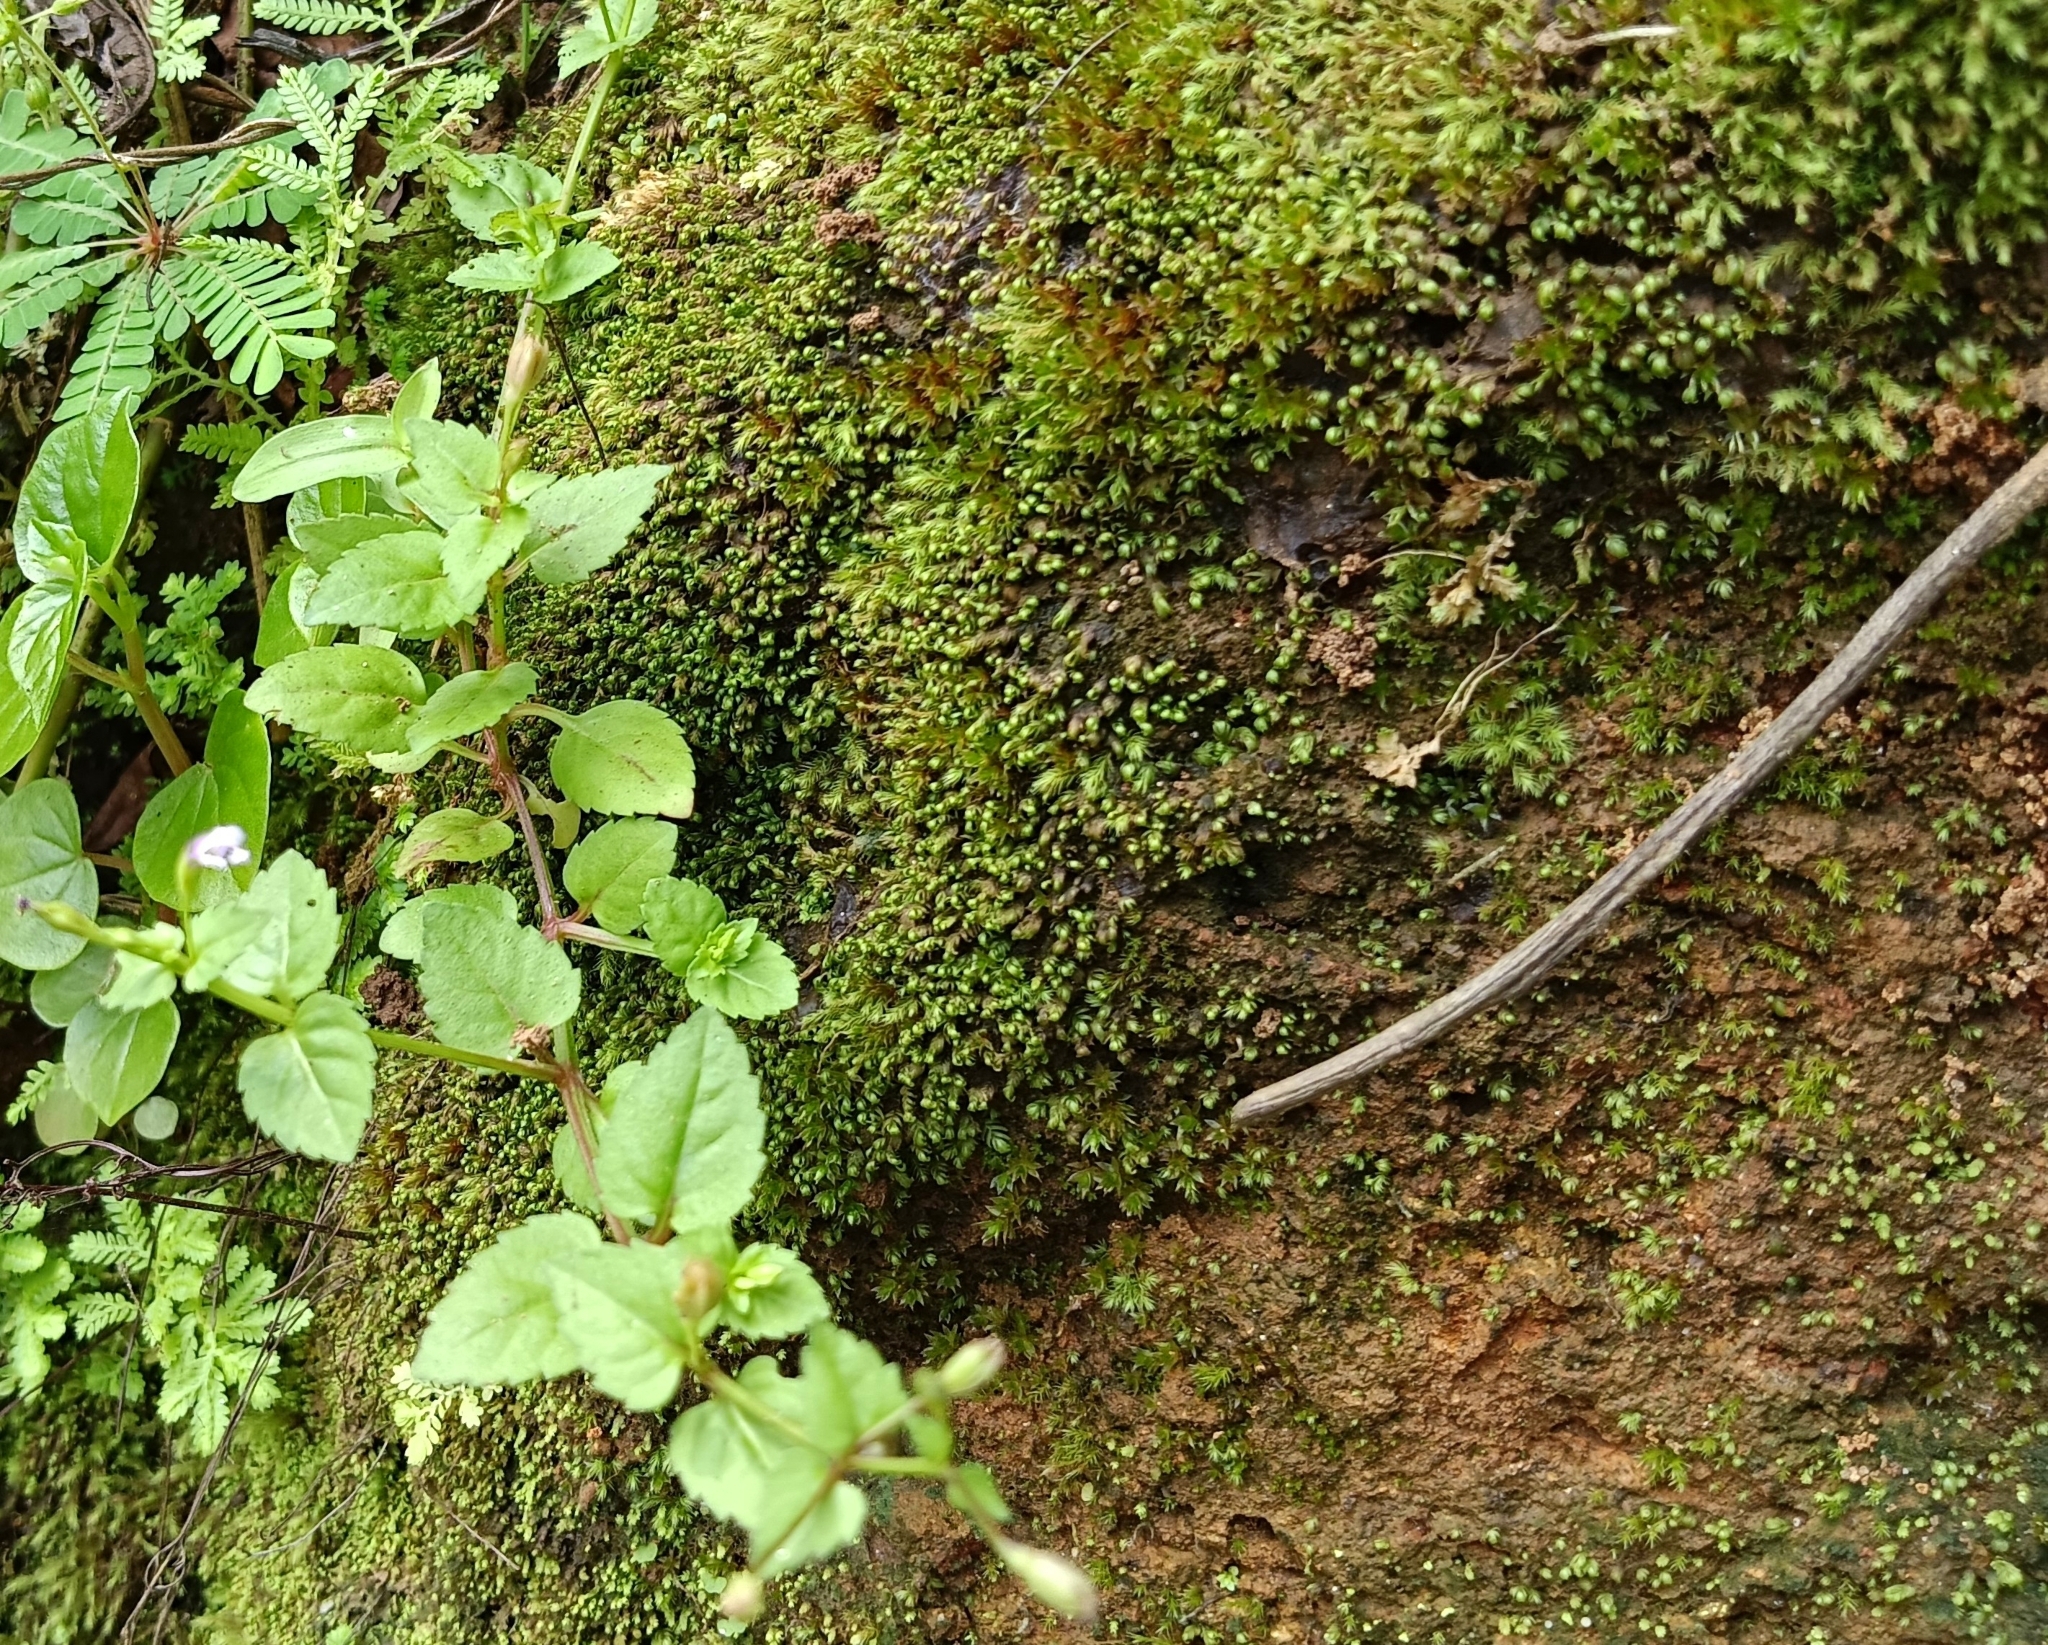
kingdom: Plantae
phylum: Tracheophyta
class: Magnoliopsida
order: Lamiales
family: Linderniaceae
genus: Torenia
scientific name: Torenia crustacea
